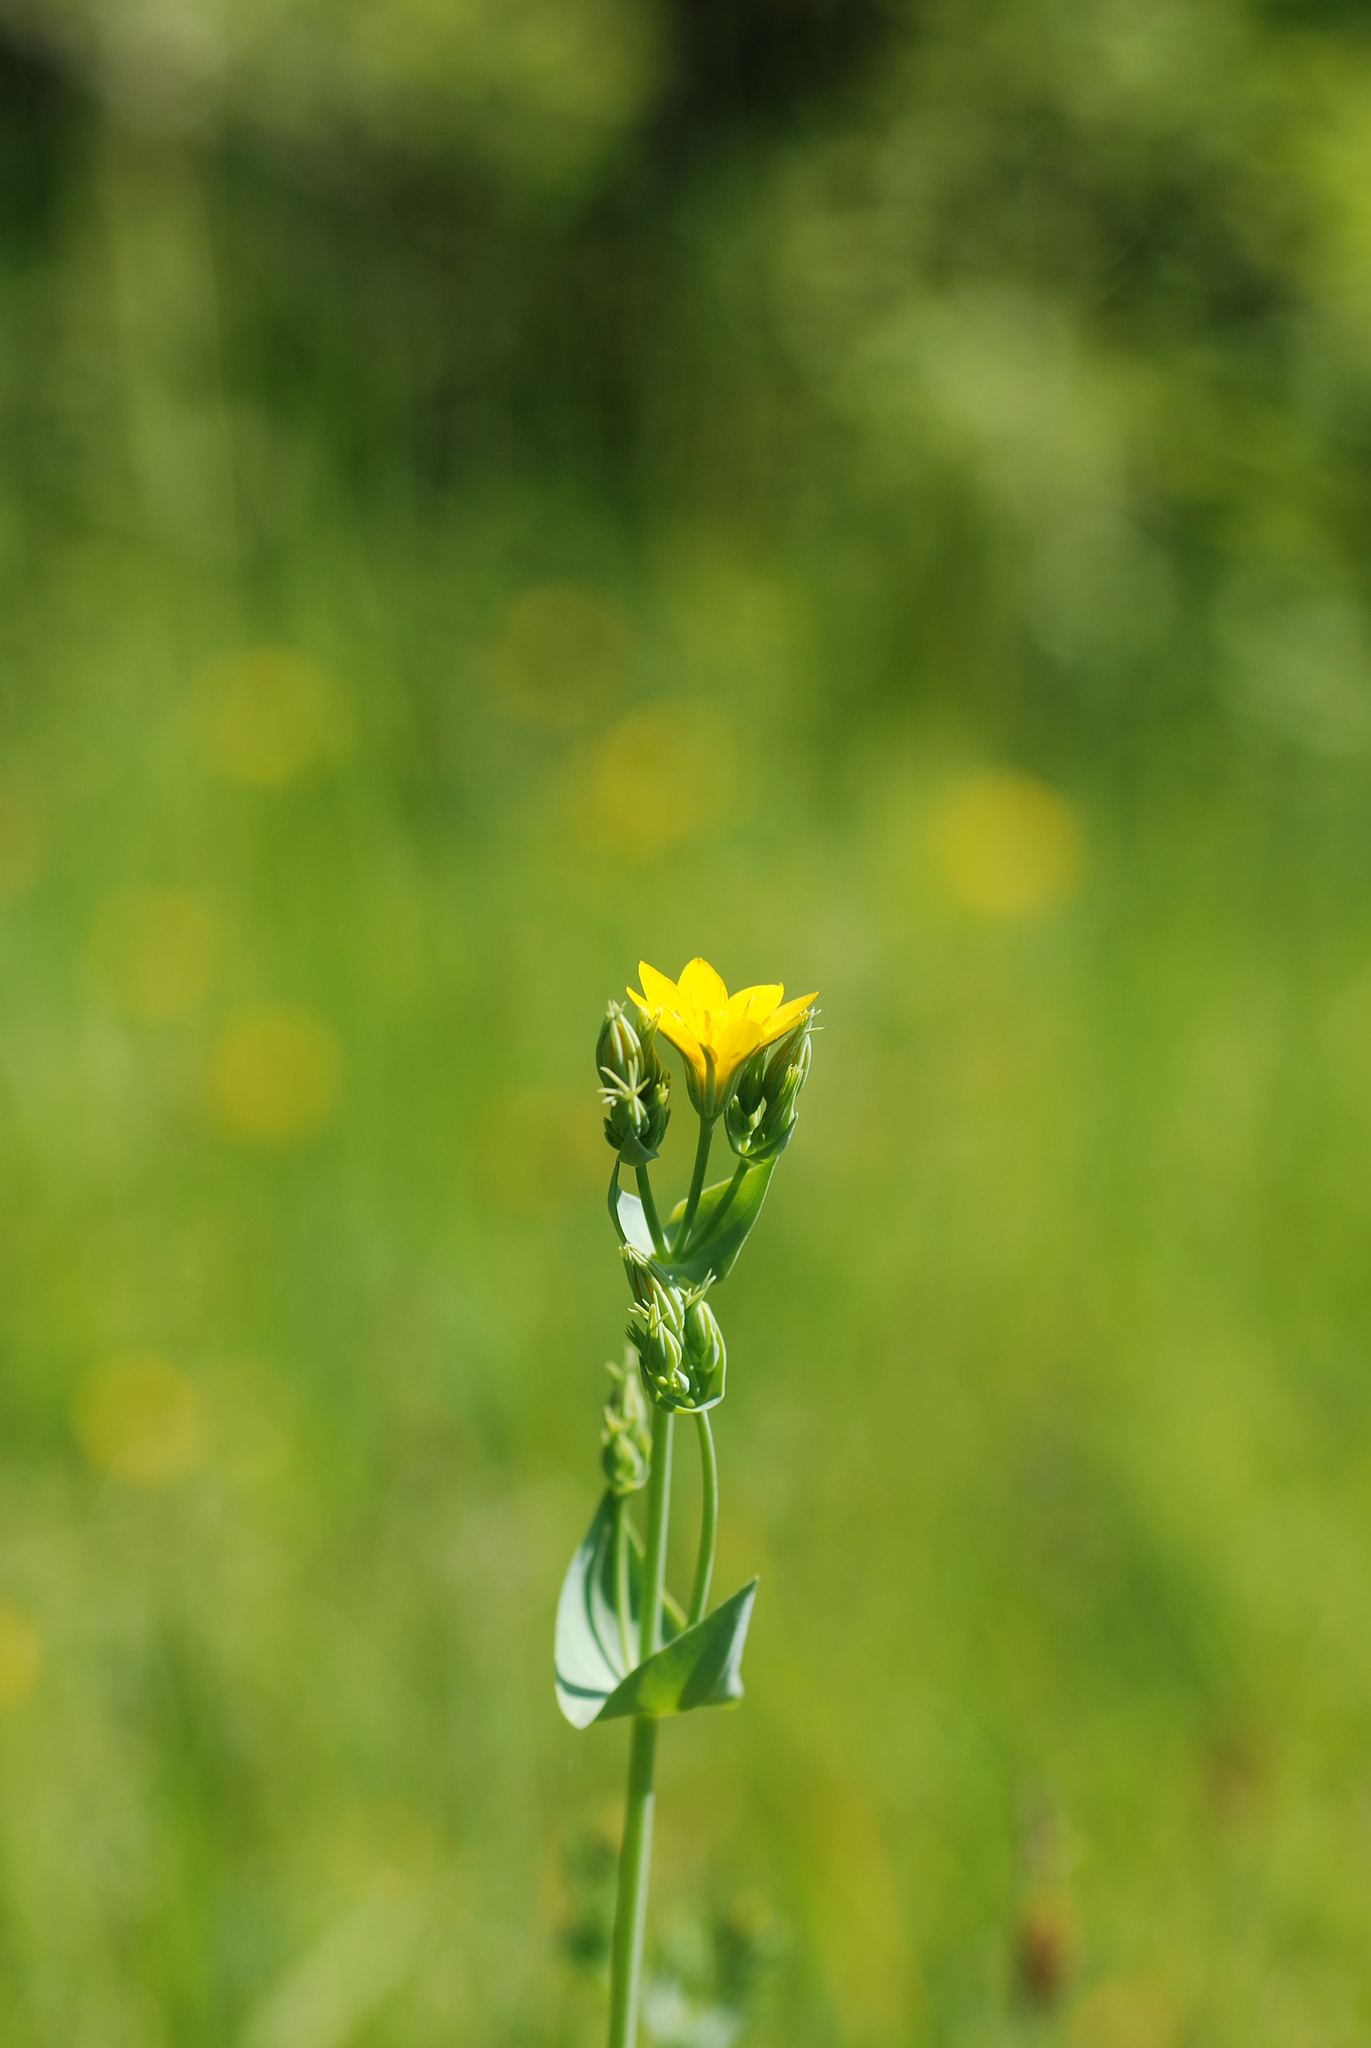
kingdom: Plantae
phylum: Tracheophyta
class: Magnoliopsida
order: Gentianales
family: Gentianaceae
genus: Blackstonia
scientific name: Blackstonia perfoliata
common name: Yellow-wort
